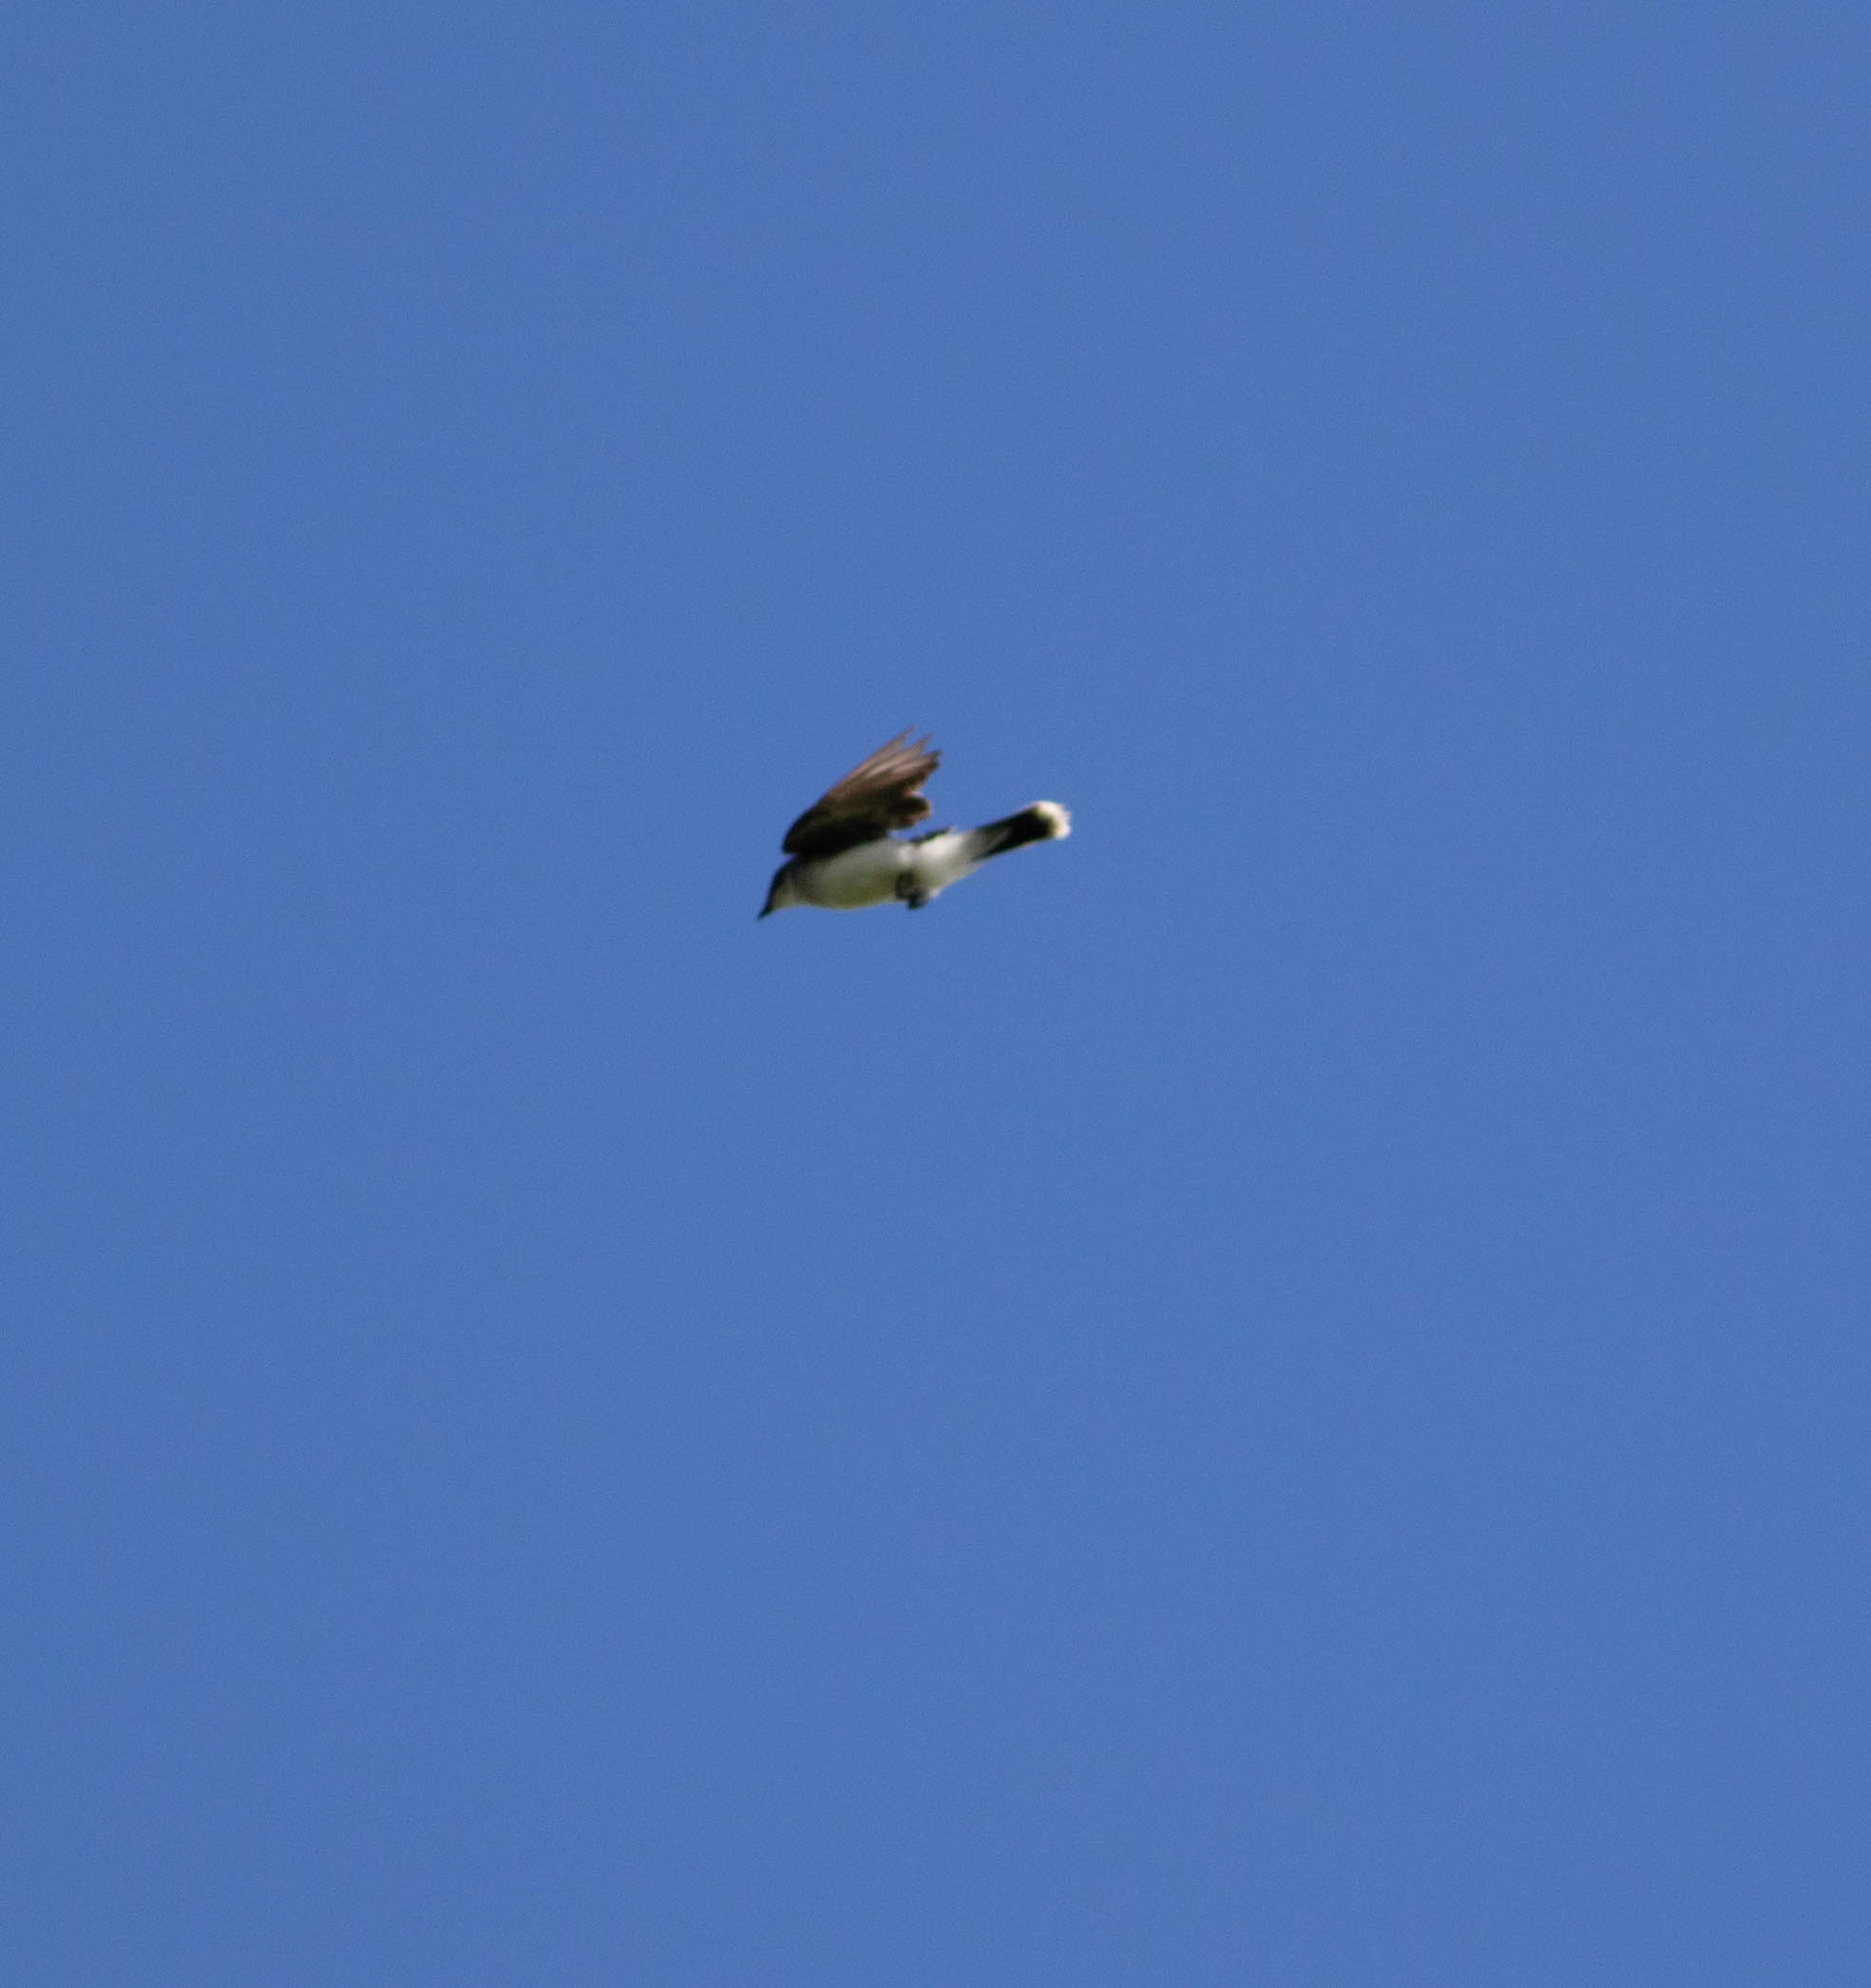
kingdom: Animalia
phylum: Chordata
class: Aves
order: Passeriformes
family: Tyrannidae
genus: Tyrannus
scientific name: Tyrannus tyrannus
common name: Eastern kingbird
